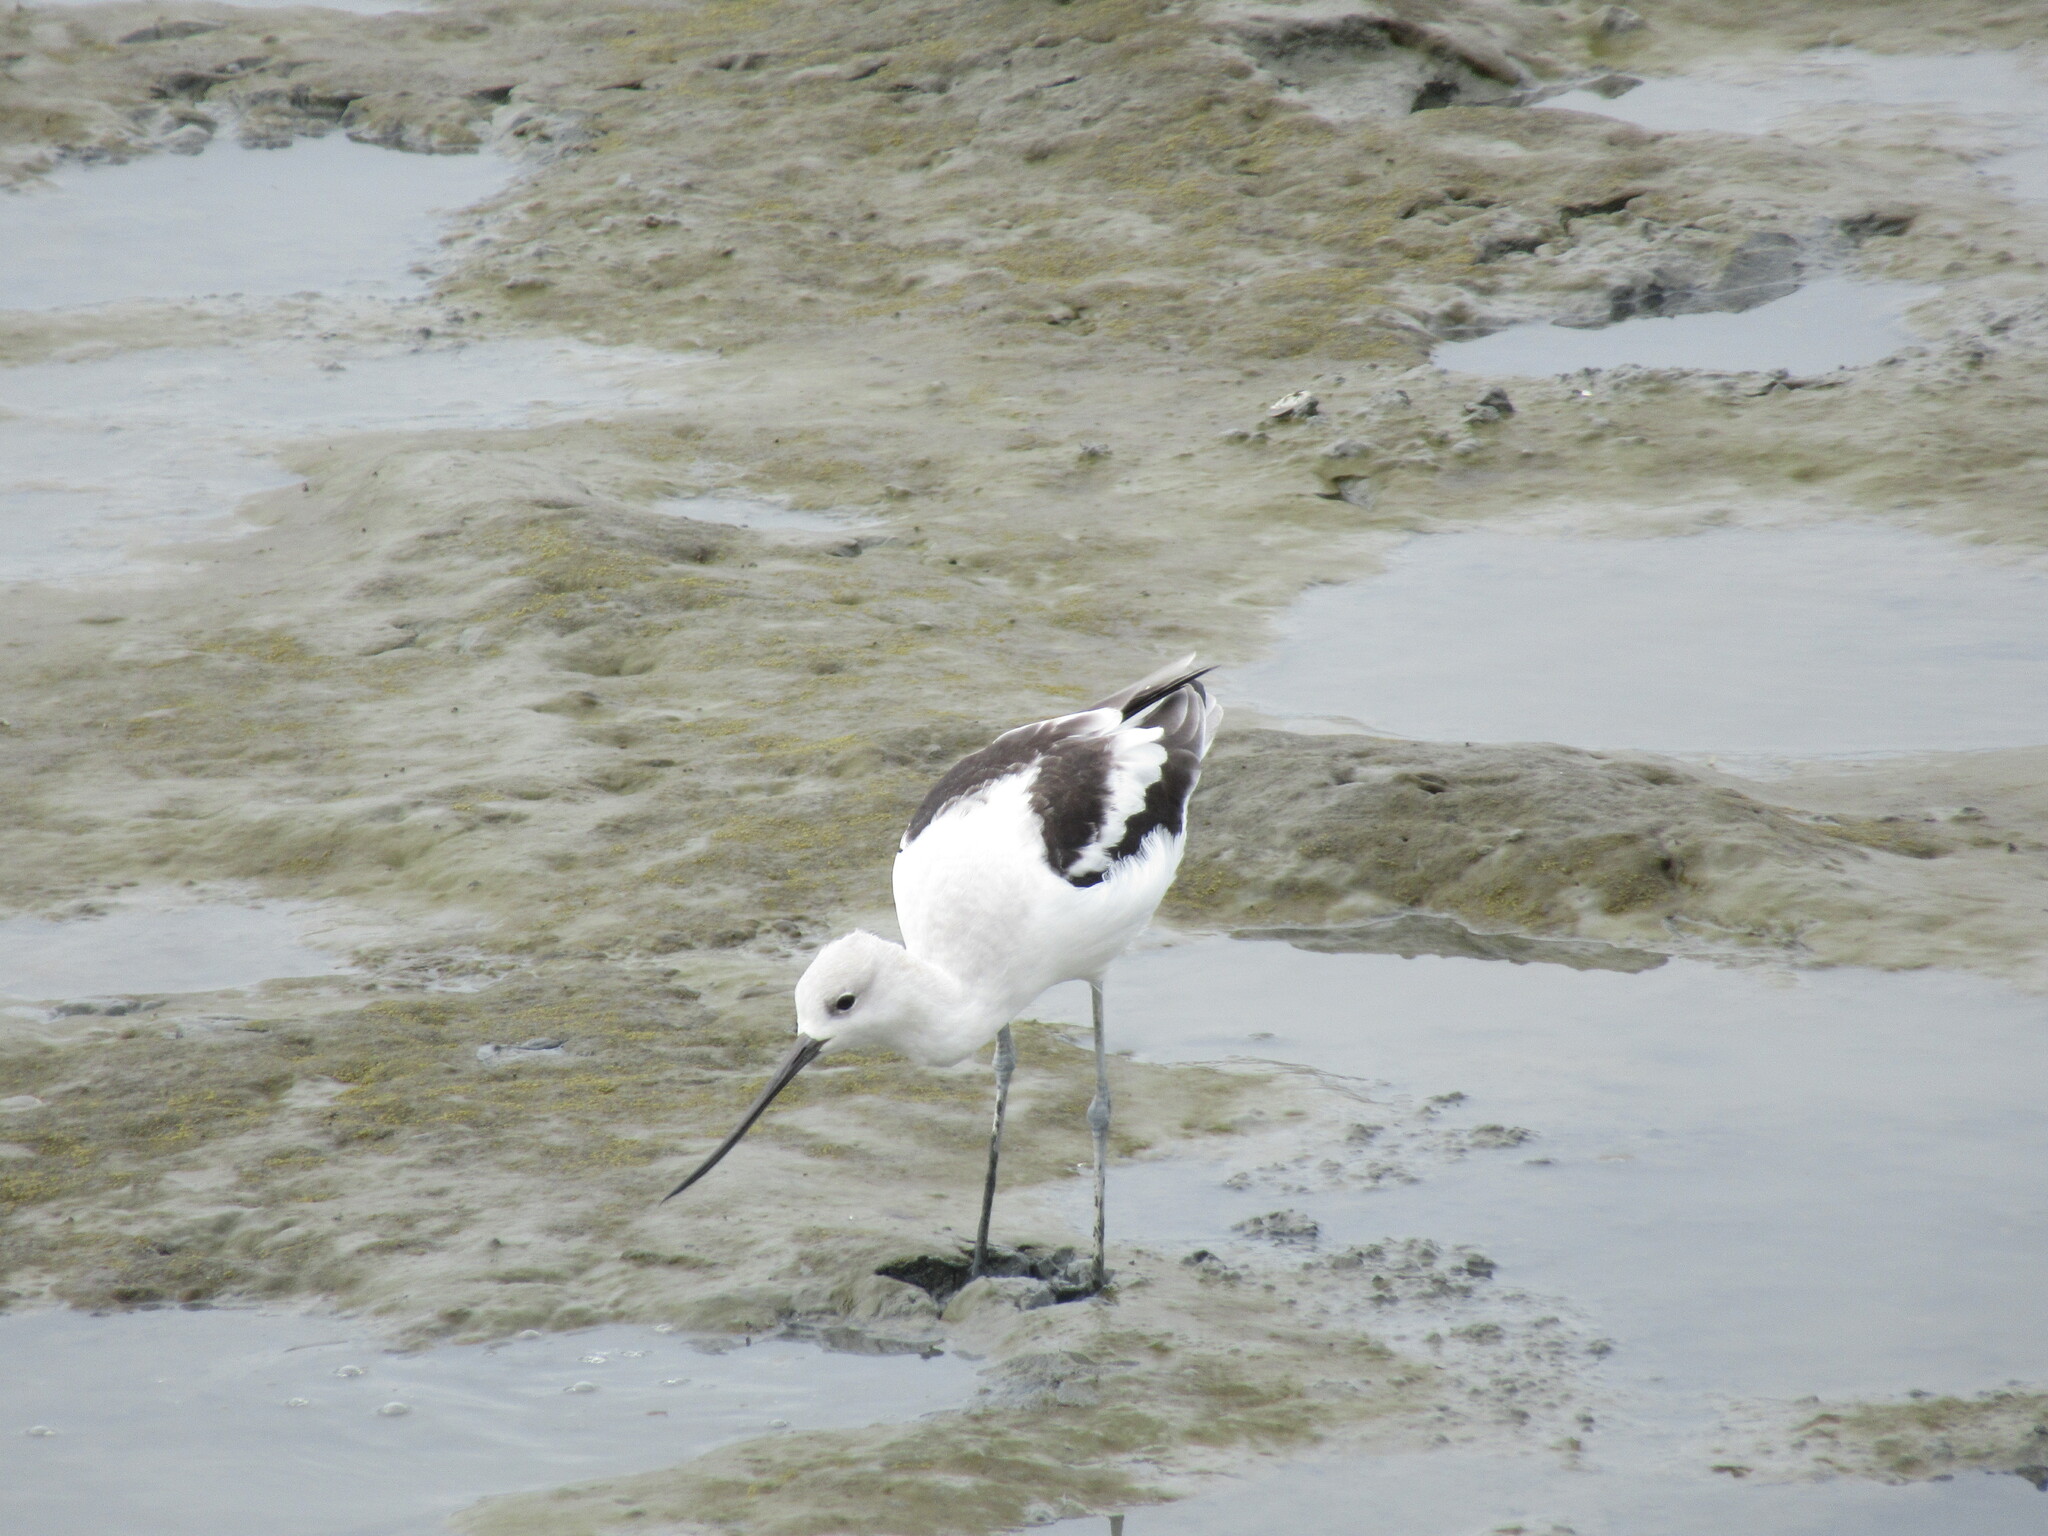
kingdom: Animalia
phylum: Chordata
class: Aves
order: Charadriiformes
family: Recurvirostridae
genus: Recurvirostra
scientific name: Recurvirostra americana
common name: American avocet
